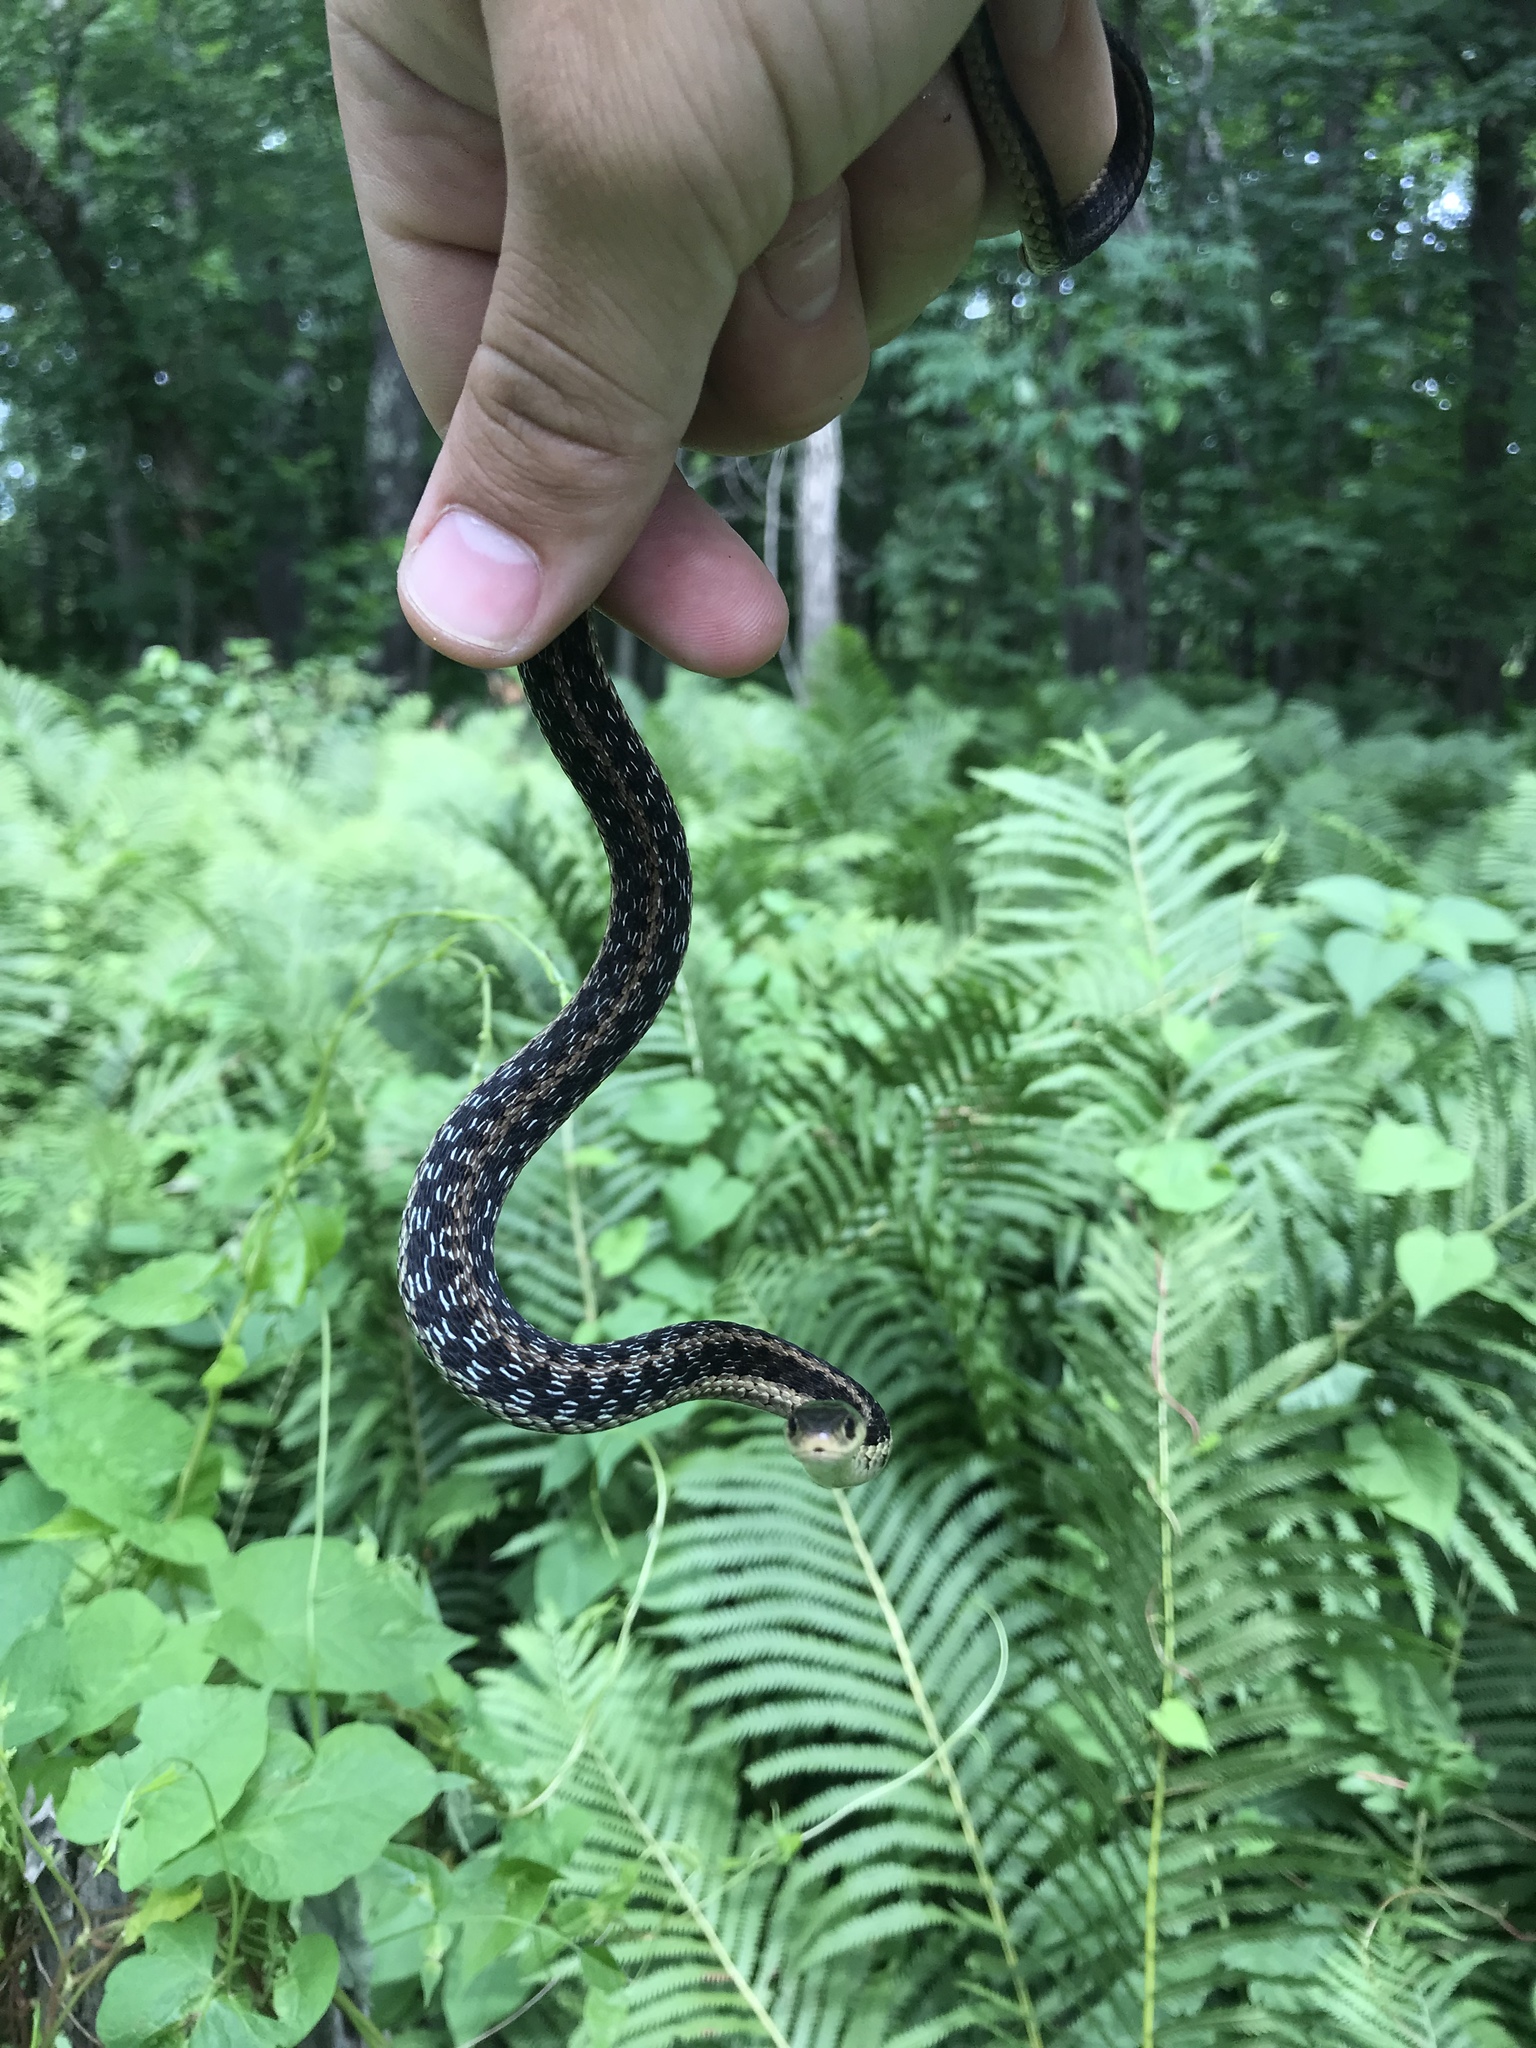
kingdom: Animalia
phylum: Chordata
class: Squamata
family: Colubridae
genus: Thamnophis
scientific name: Thamnophis sirtalis
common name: Common garter snake
